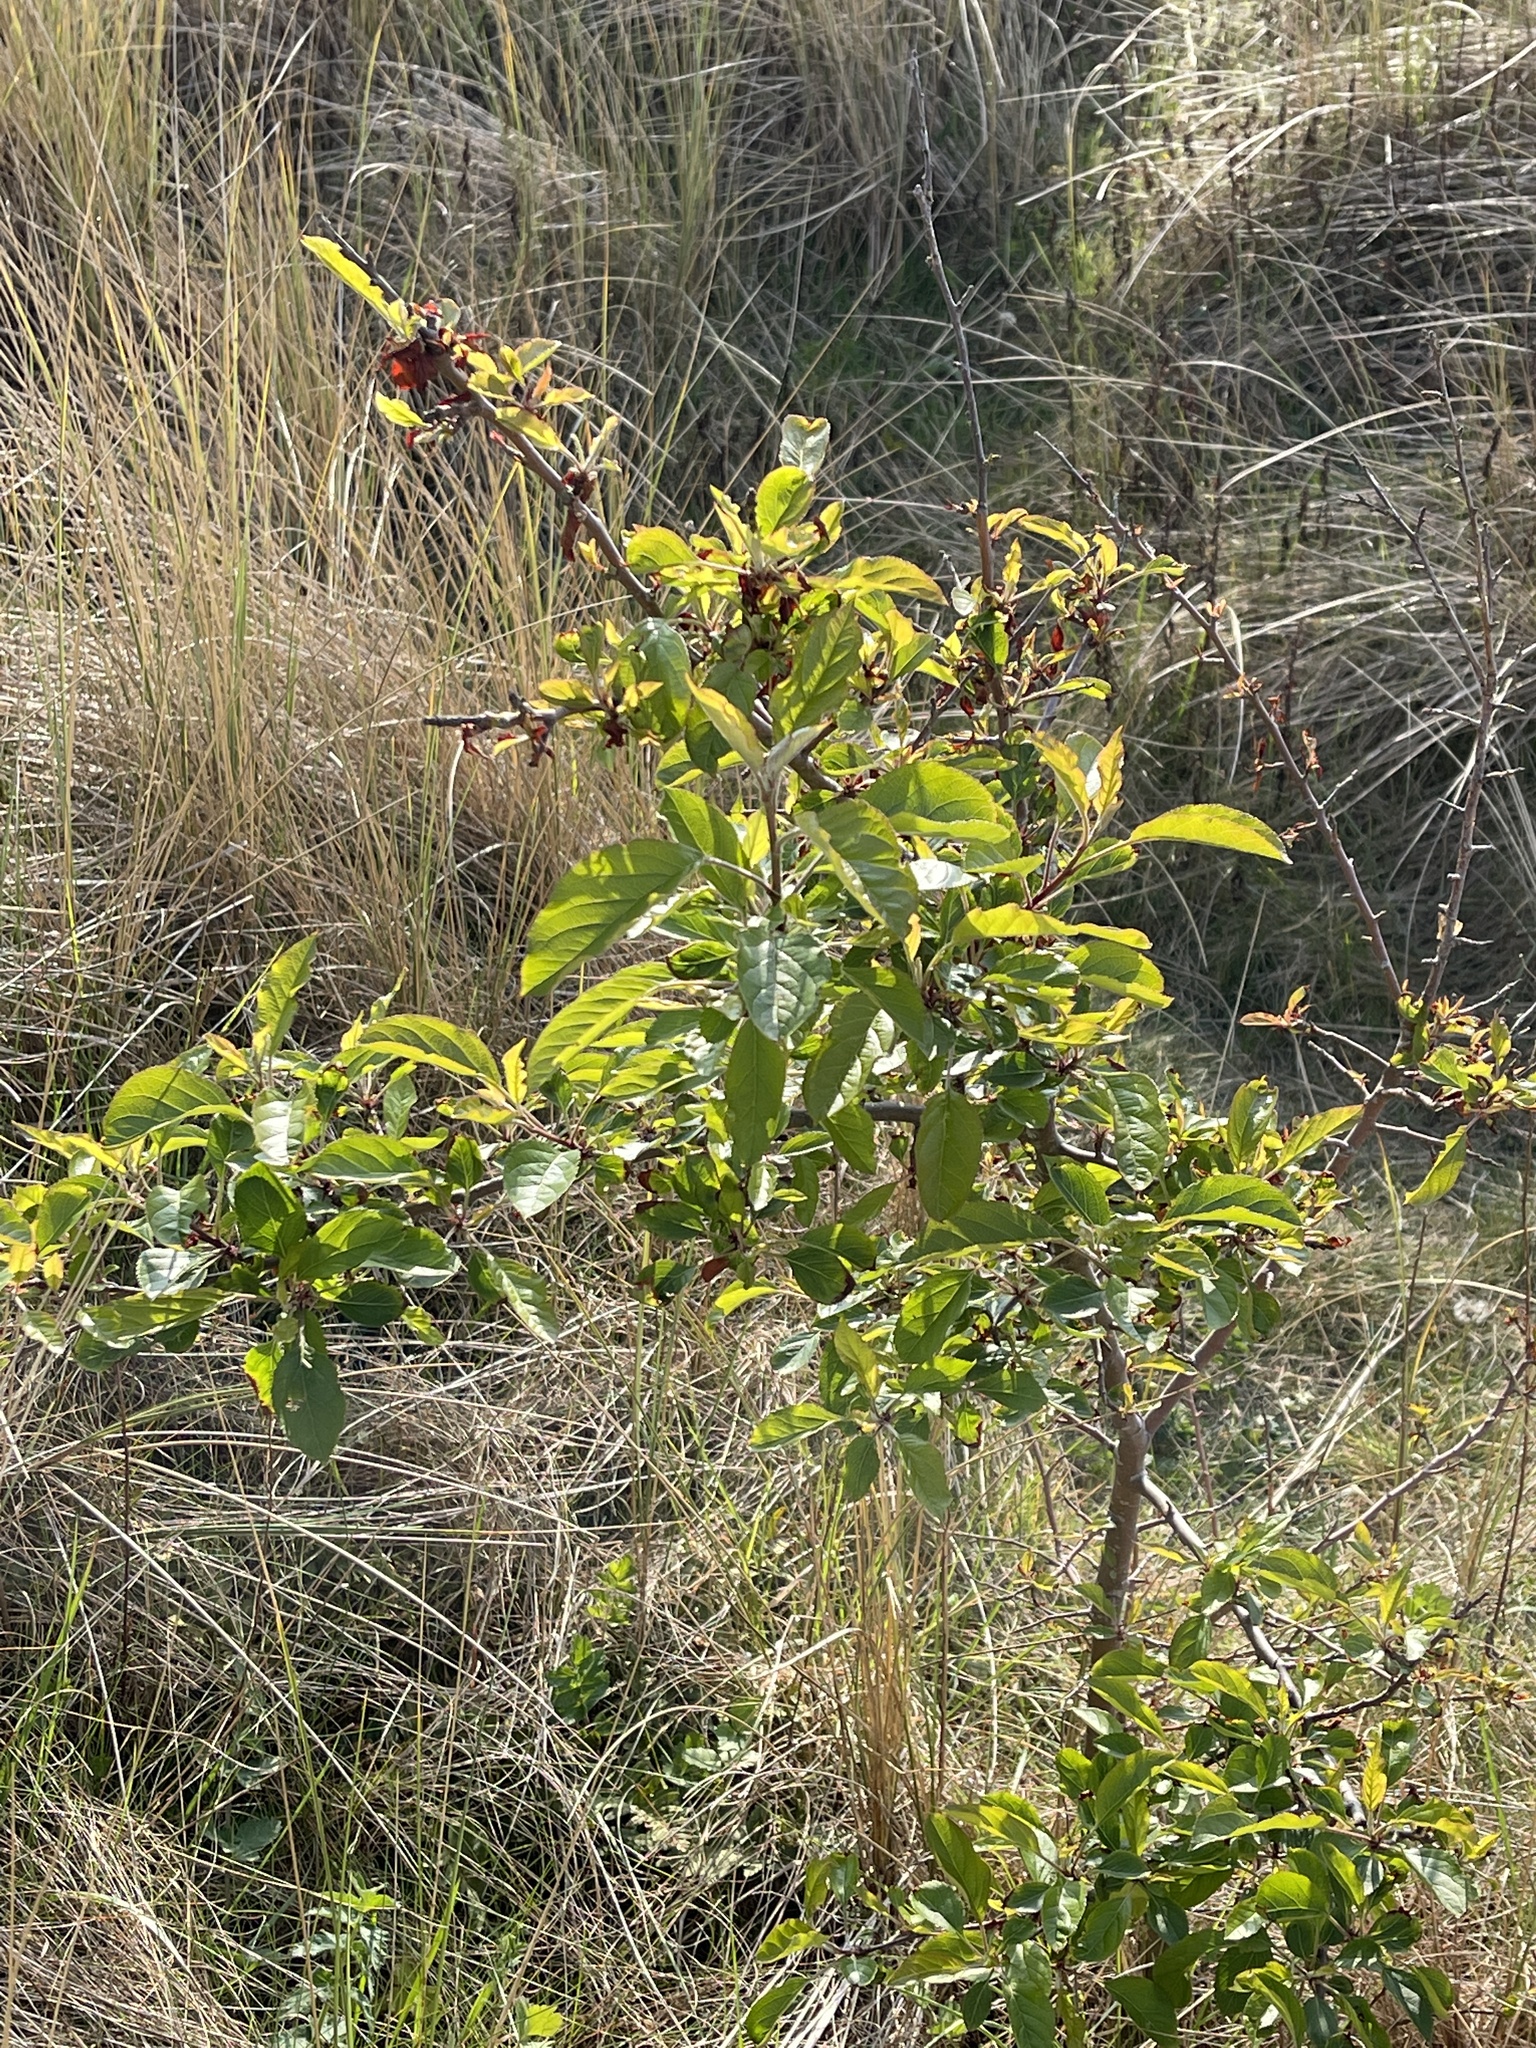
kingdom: Plantae
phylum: Tracheophyta
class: Magnoliopsida
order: Rosales
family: Rosaceae
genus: Malus
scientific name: Malus domestica
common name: Apple
